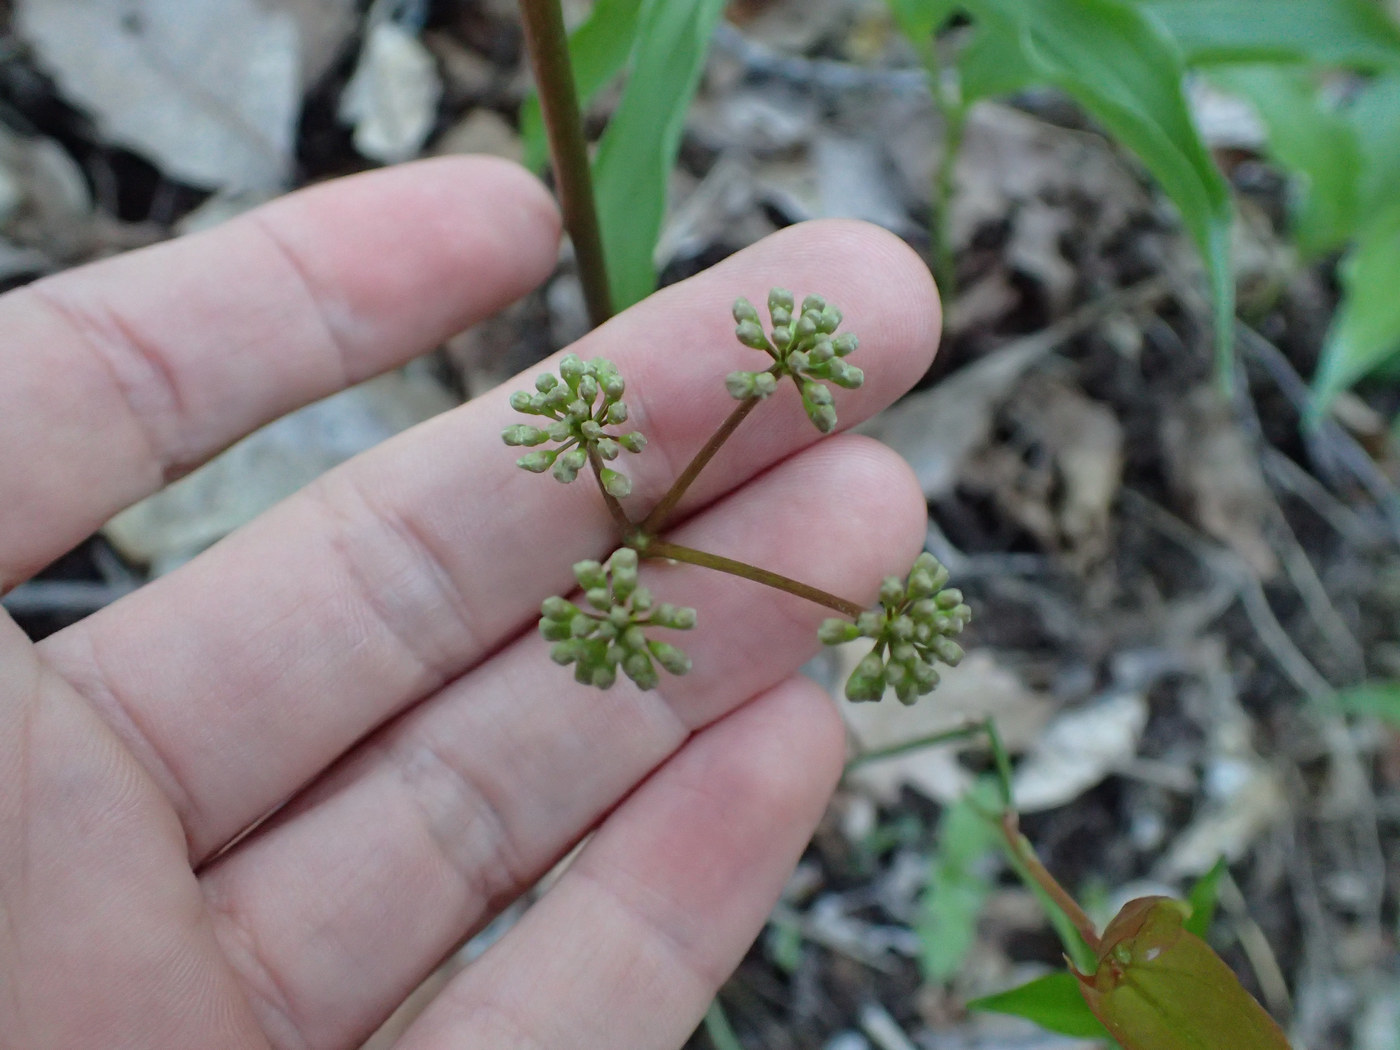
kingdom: Plantae
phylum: Tracheophyta
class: Magnoliopsida
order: Apiales
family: Araliaceae
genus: Aralia
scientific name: Aralia nudicaulis
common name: Wild sarsaparilla
